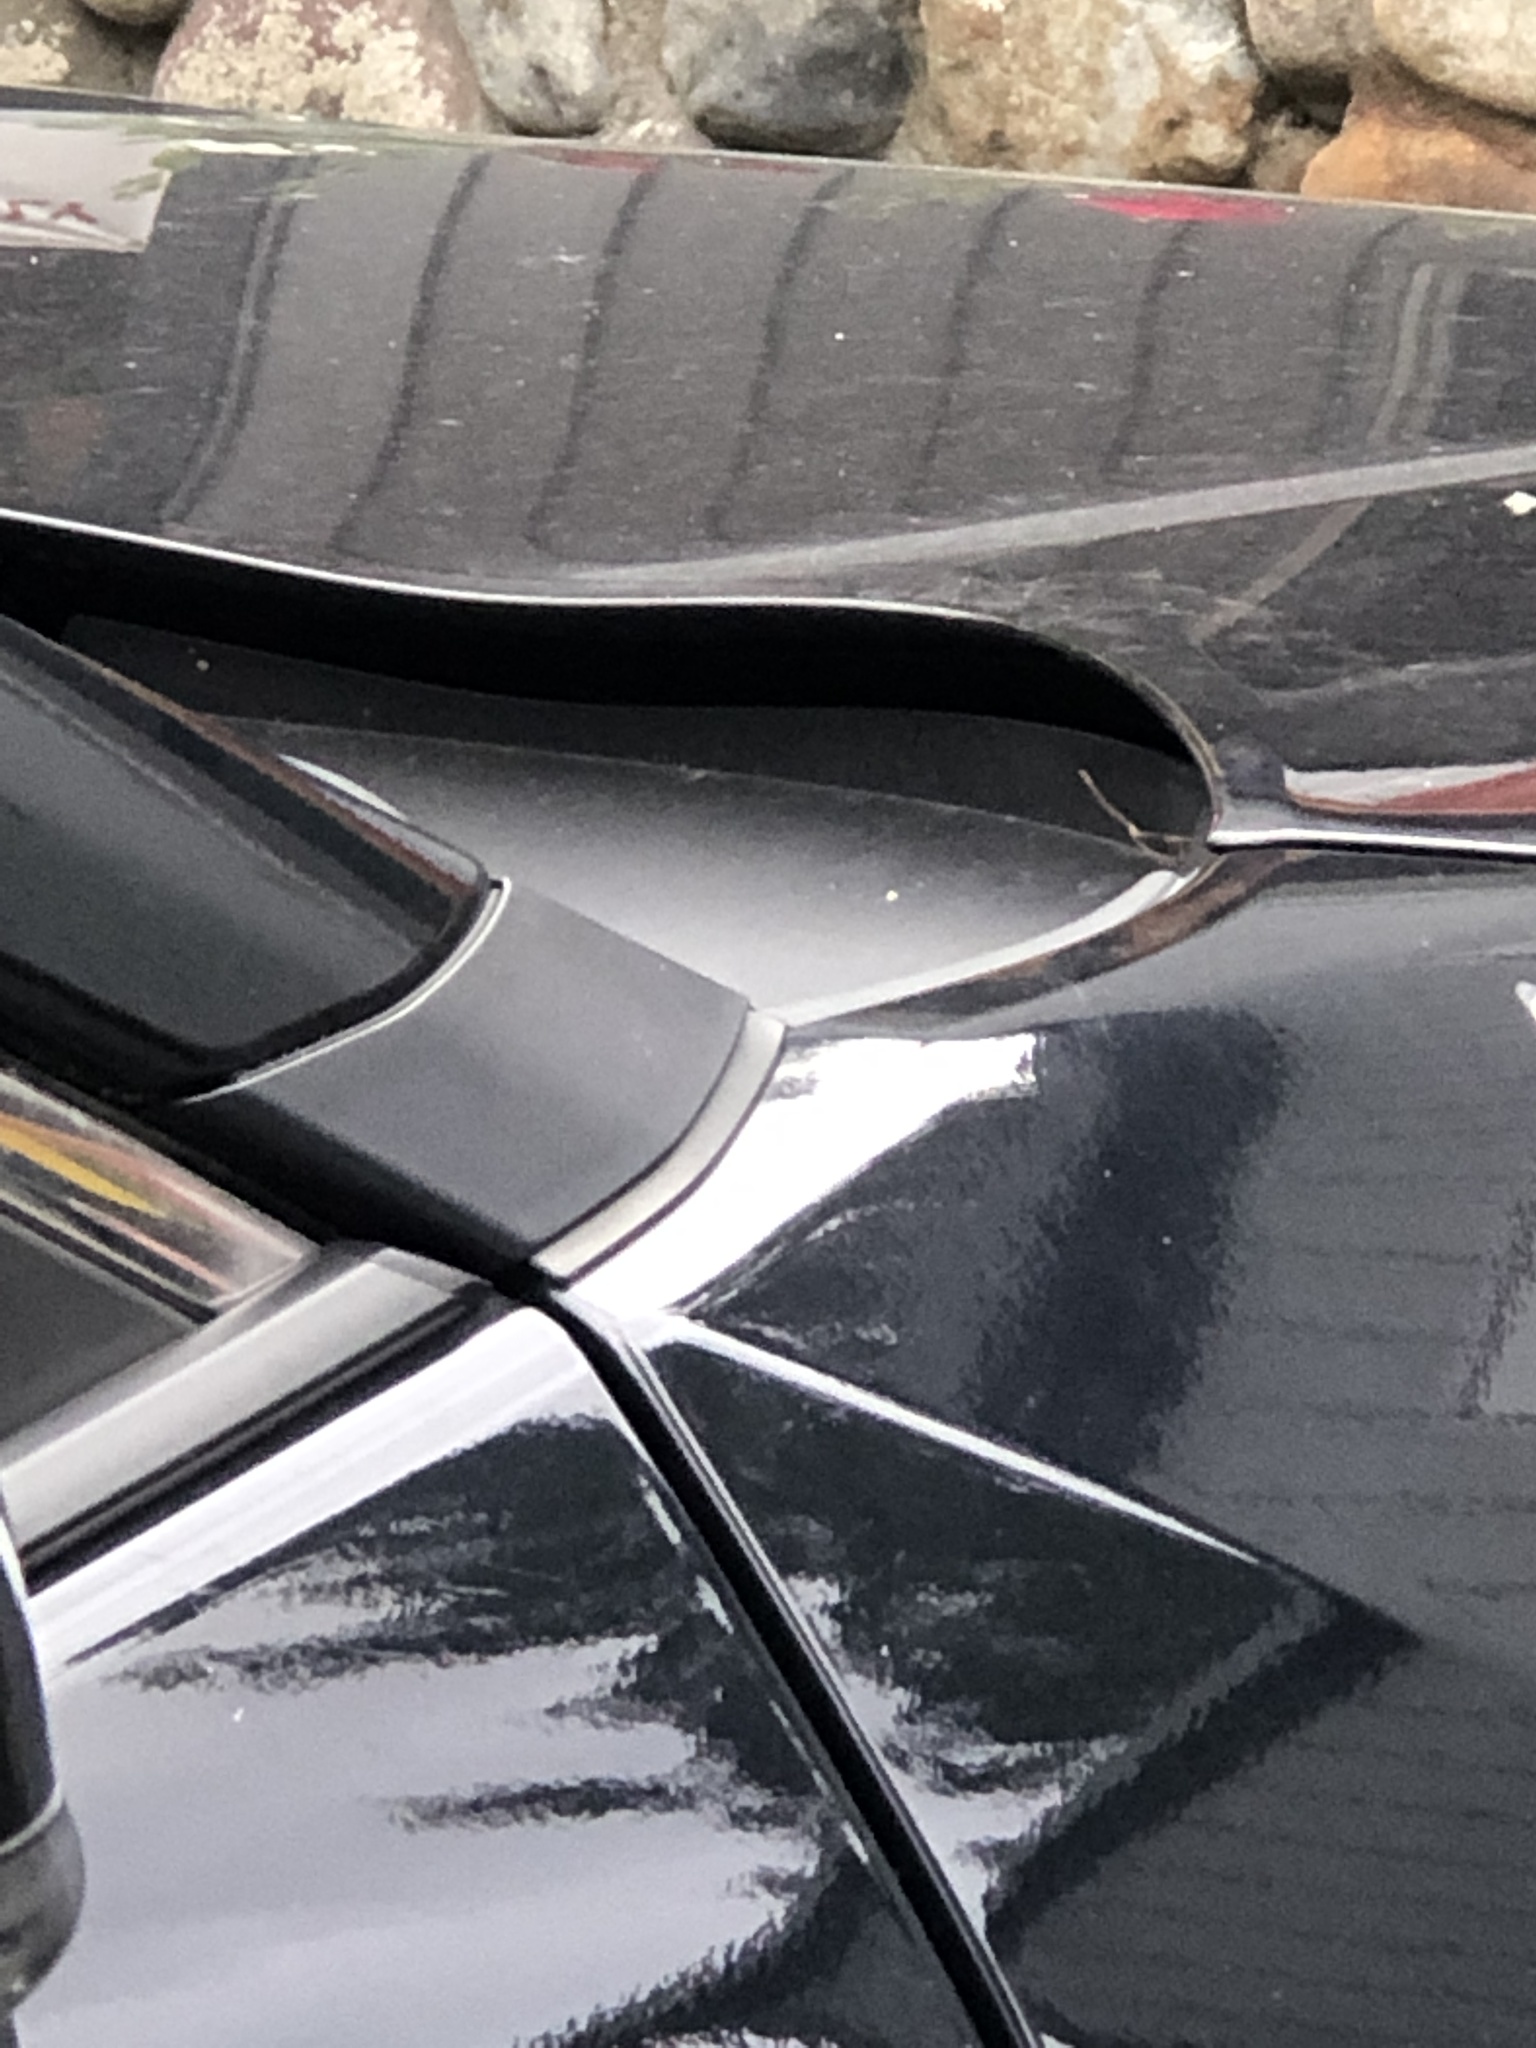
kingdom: Animalia
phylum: Chordata
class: Aves
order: Passeriformes
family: Passerellidae
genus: Junco
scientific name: Junco hyemalis
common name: Dark-eyed junco
